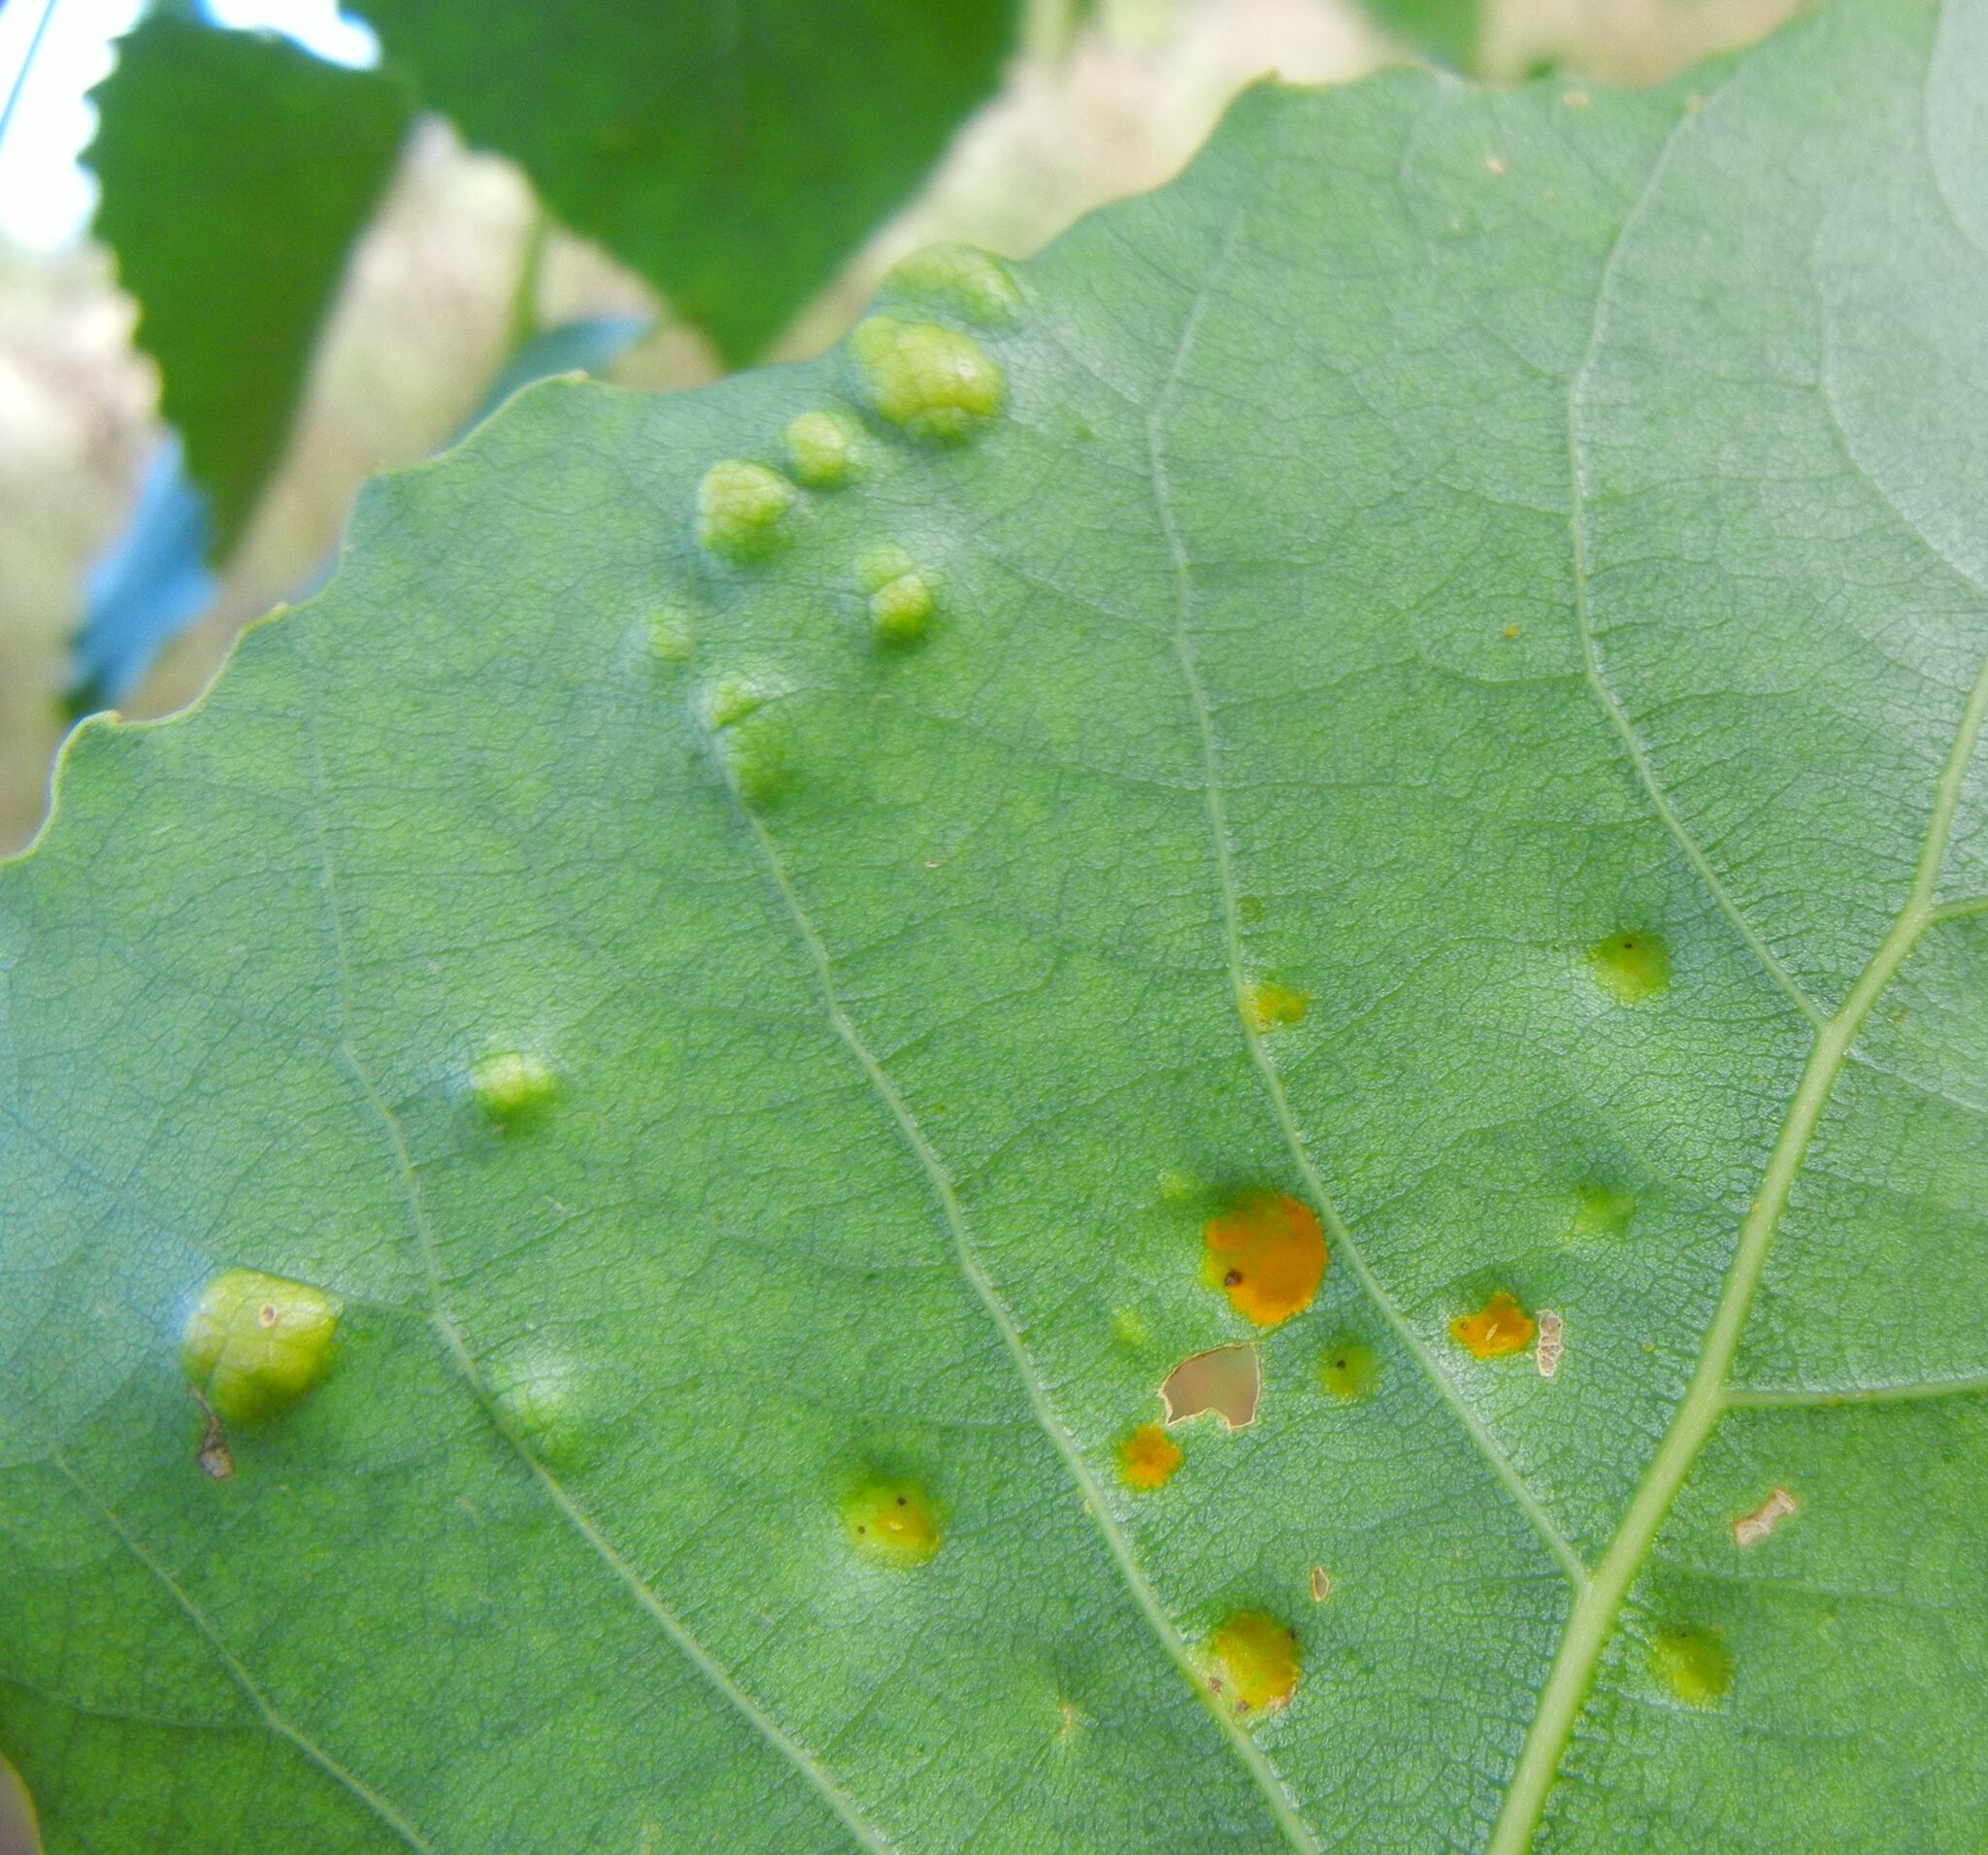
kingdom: Fungi
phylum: Ascomycota
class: Taphrinomycetes
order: Taphrinales
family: Taphrinaceae
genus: Taphrina
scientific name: Taphrina populina
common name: Poplar leaf curl
